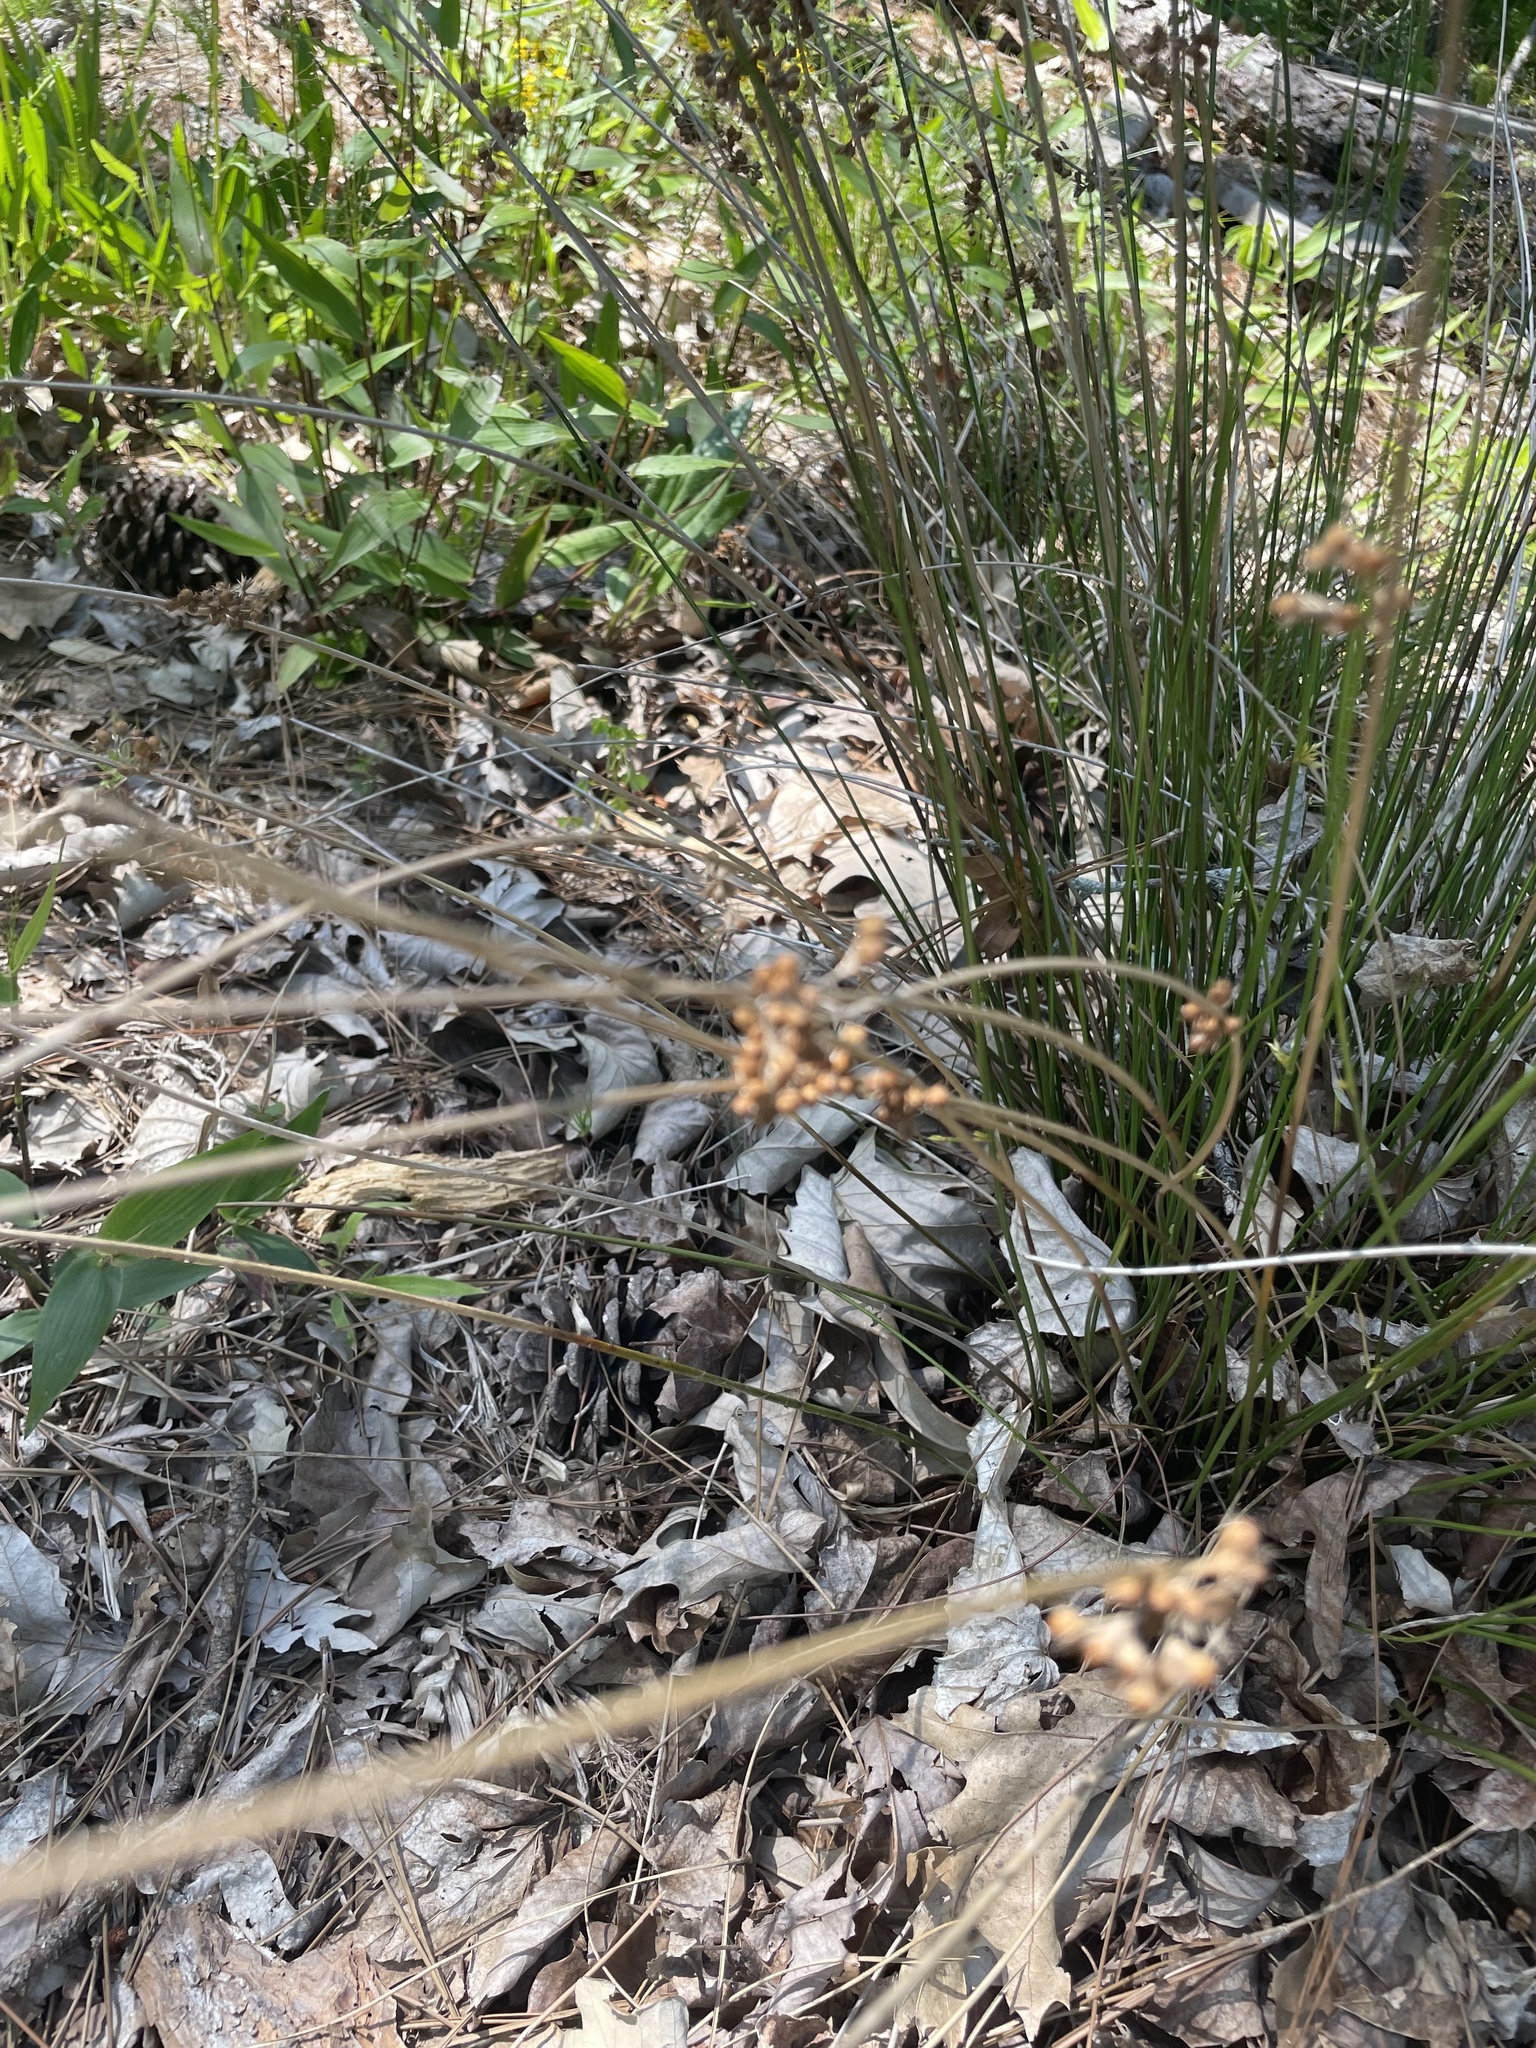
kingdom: Plantae
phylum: Tracheophyta
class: Liliopsida
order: Poales
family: Juncaceae
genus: Juncus
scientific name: Juncus coriaceus
